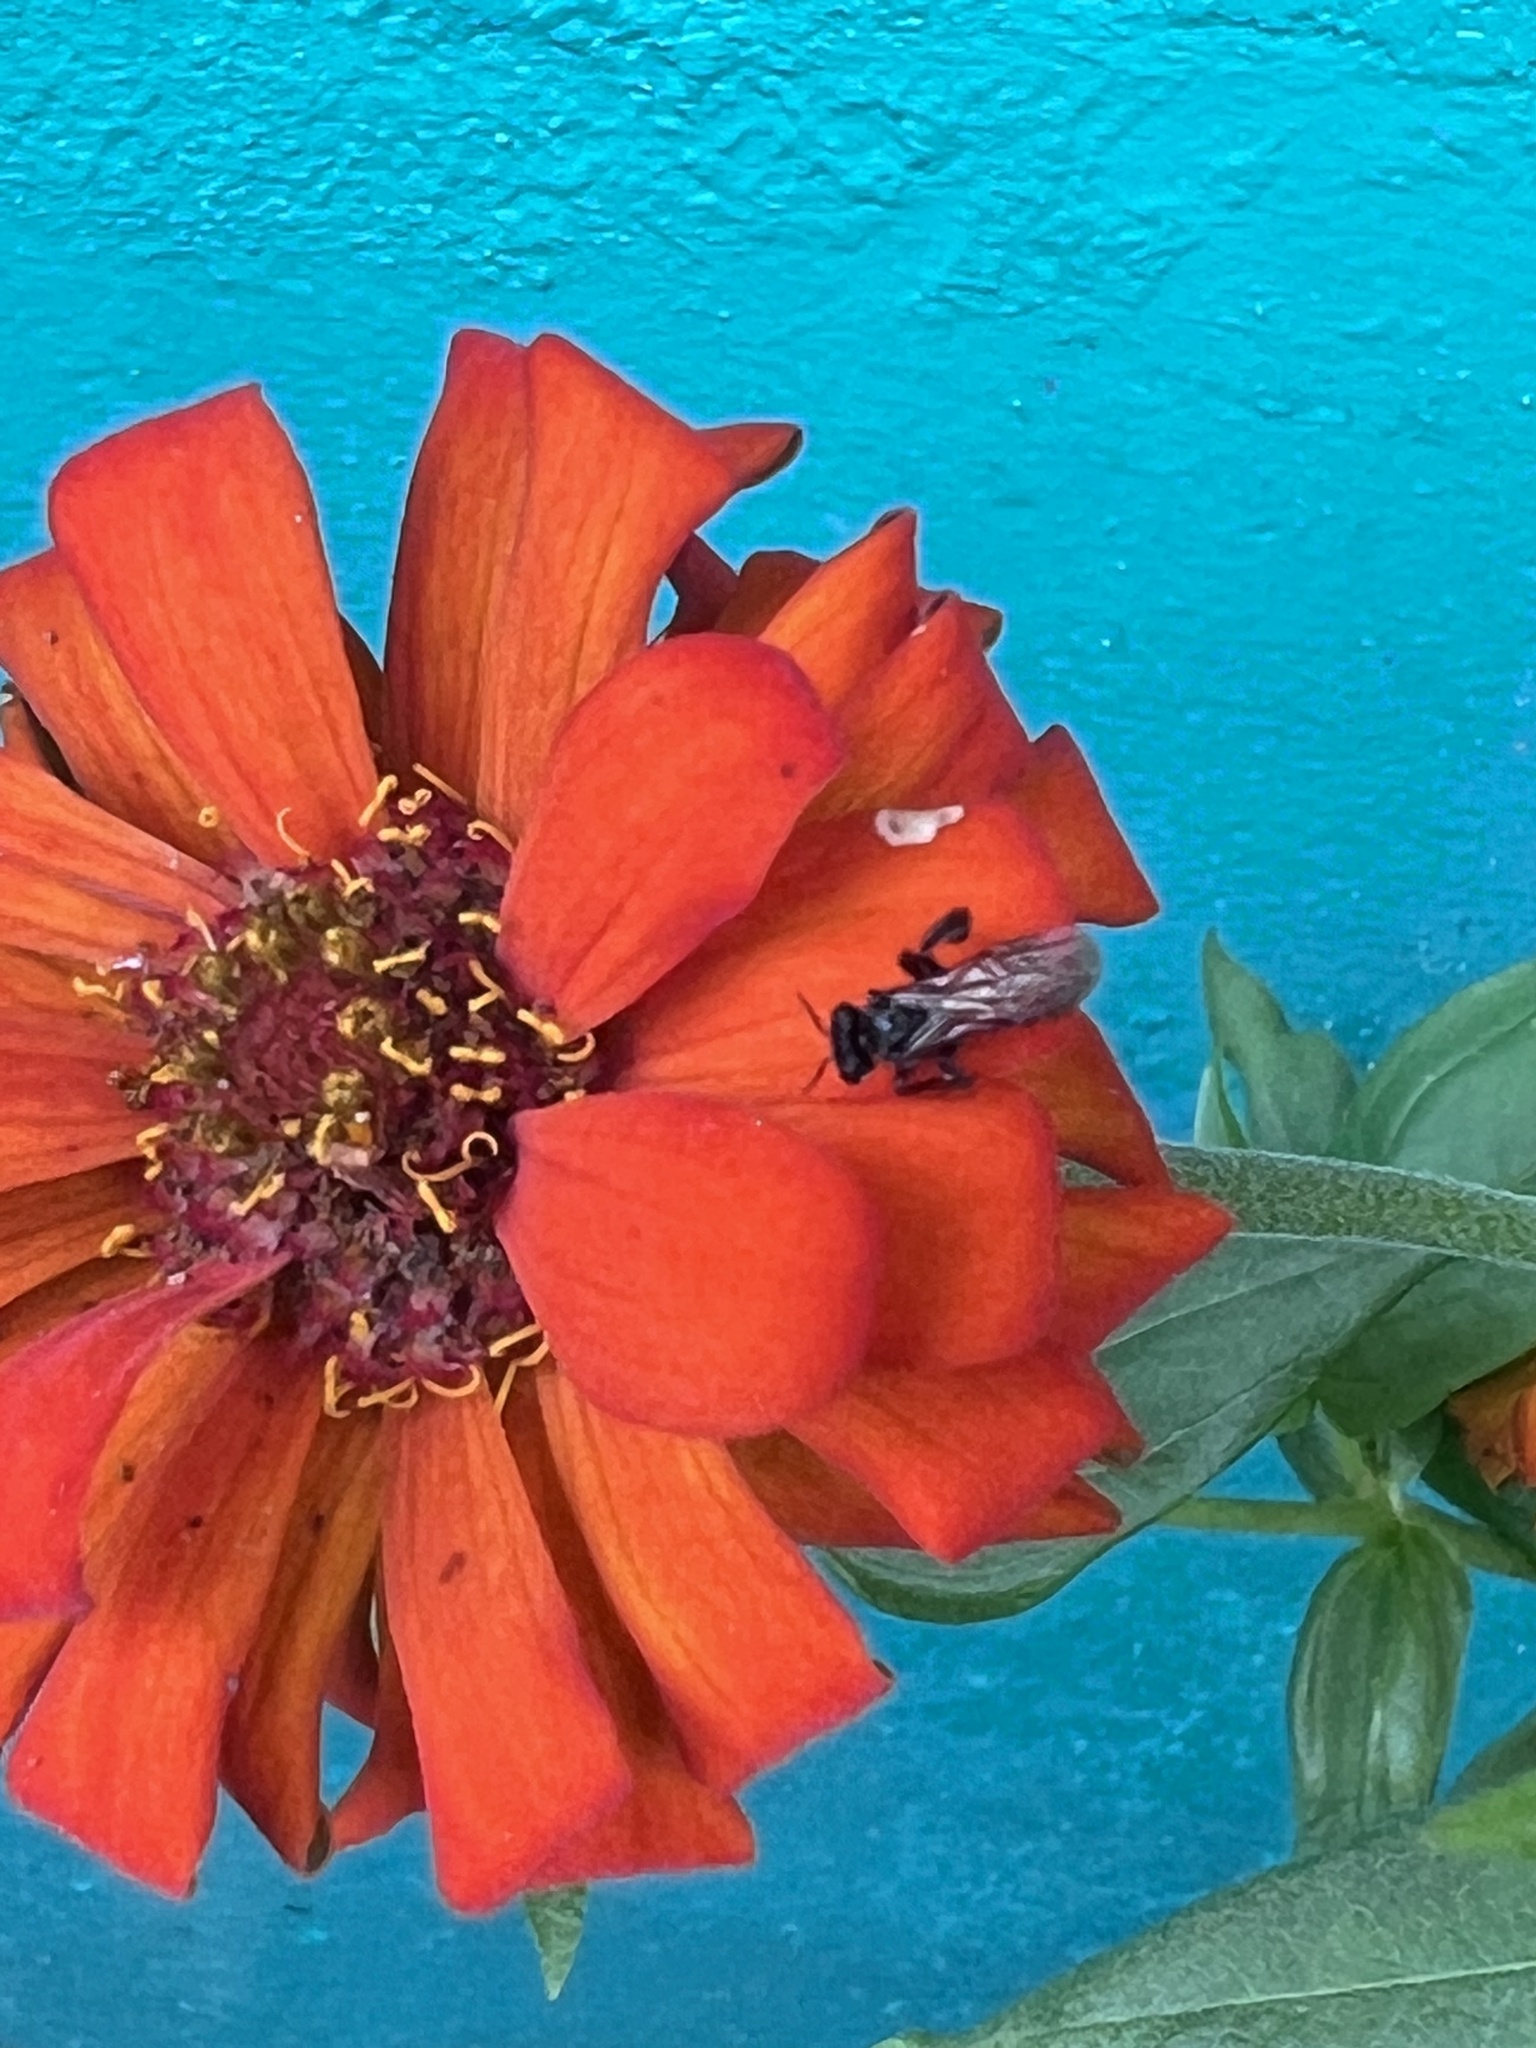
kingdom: Animalia
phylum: Arthropoda
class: Insecta
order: Hymenoptera
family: Apidae
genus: Trigona
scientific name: Trigona fulviventris
